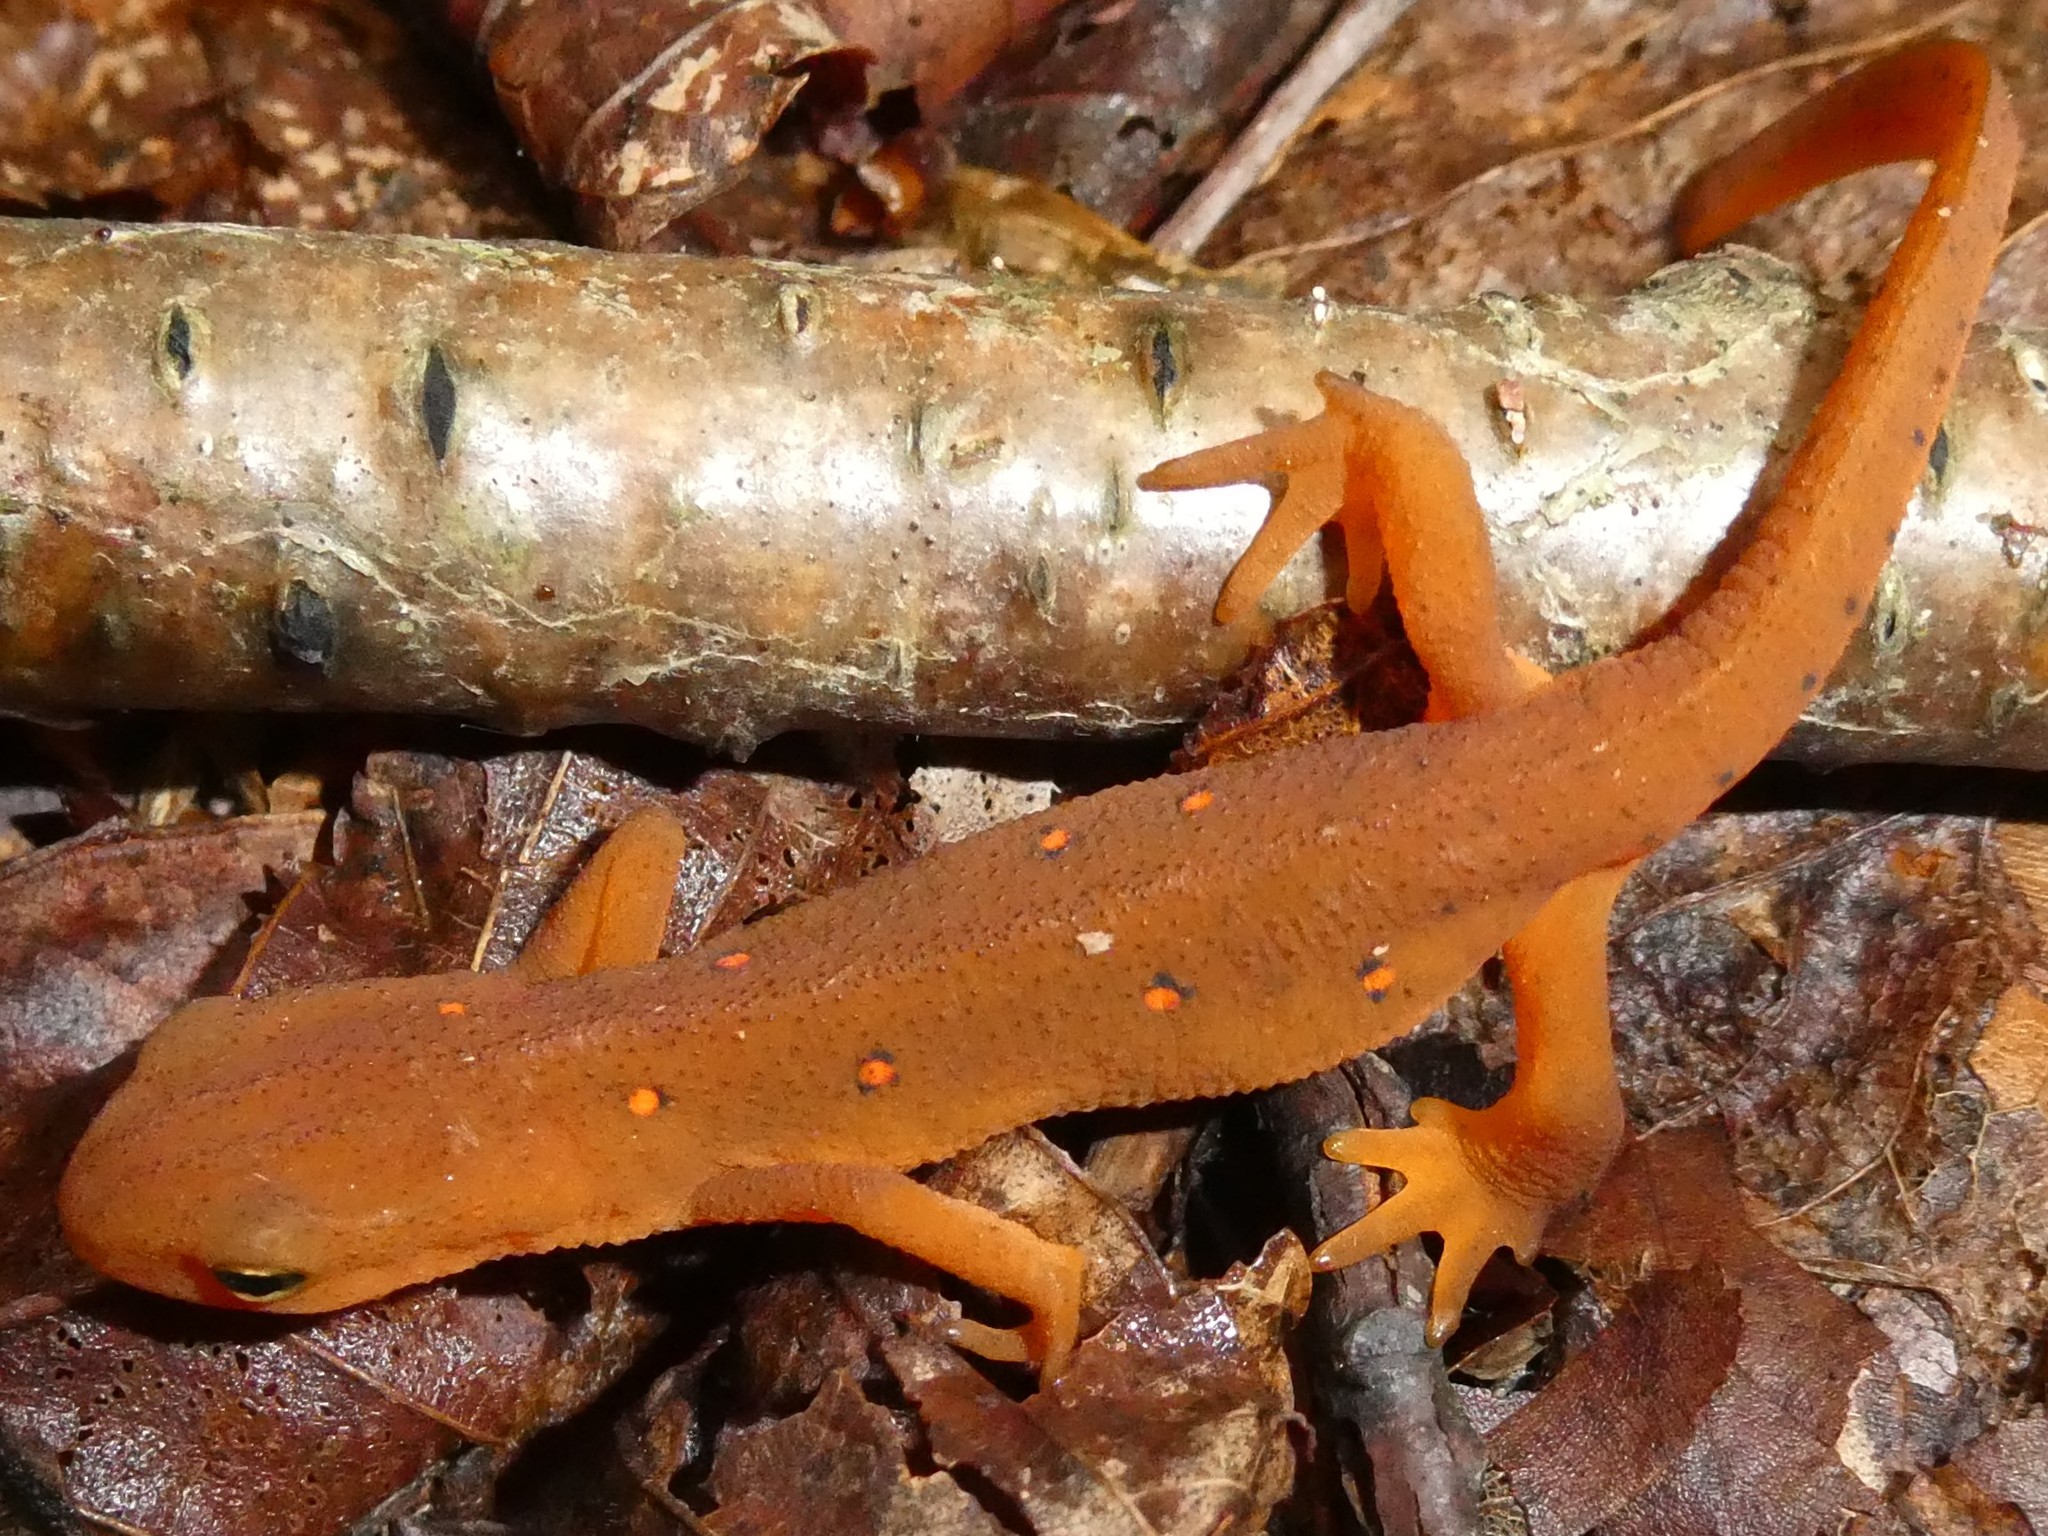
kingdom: Animalia
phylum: Chordata
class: Amphibia
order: Caudata
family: Salamandridae
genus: Notophthalmus
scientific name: Notophthalmus viridescens
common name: Eastern newt
